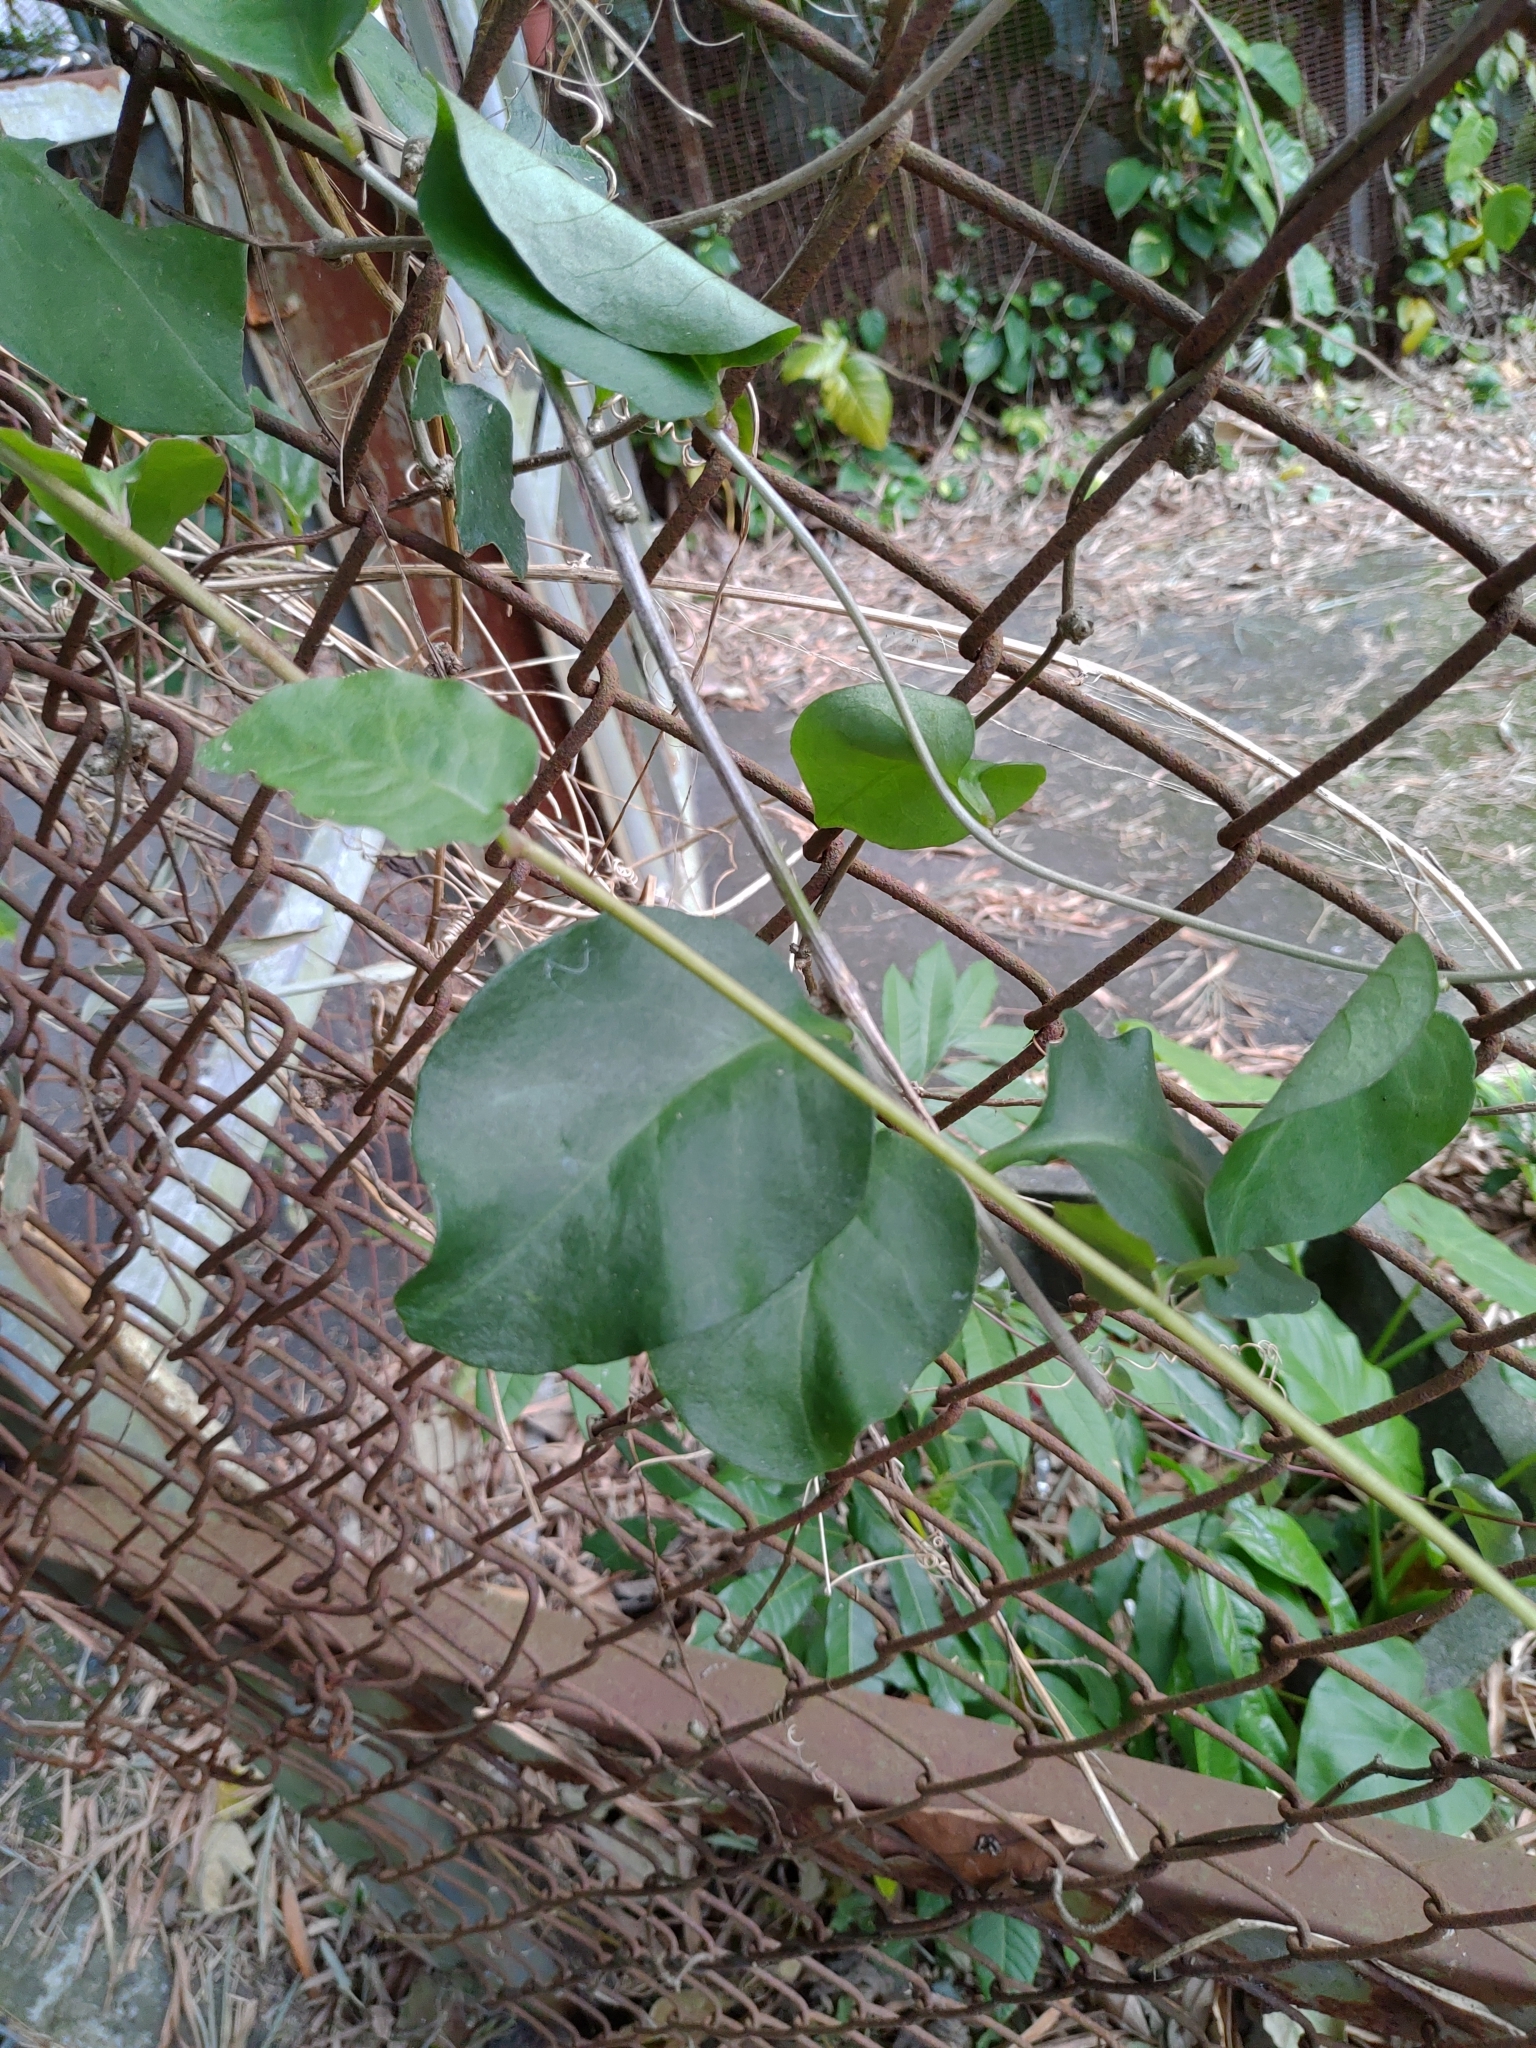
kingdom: Plantae
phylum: Tracheophyta
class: Magnoliopsida
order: Caryophyllales
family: Basellaceae
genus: Anredera
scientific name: Anredera cordifolia
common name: Heartleaf madeiravine
